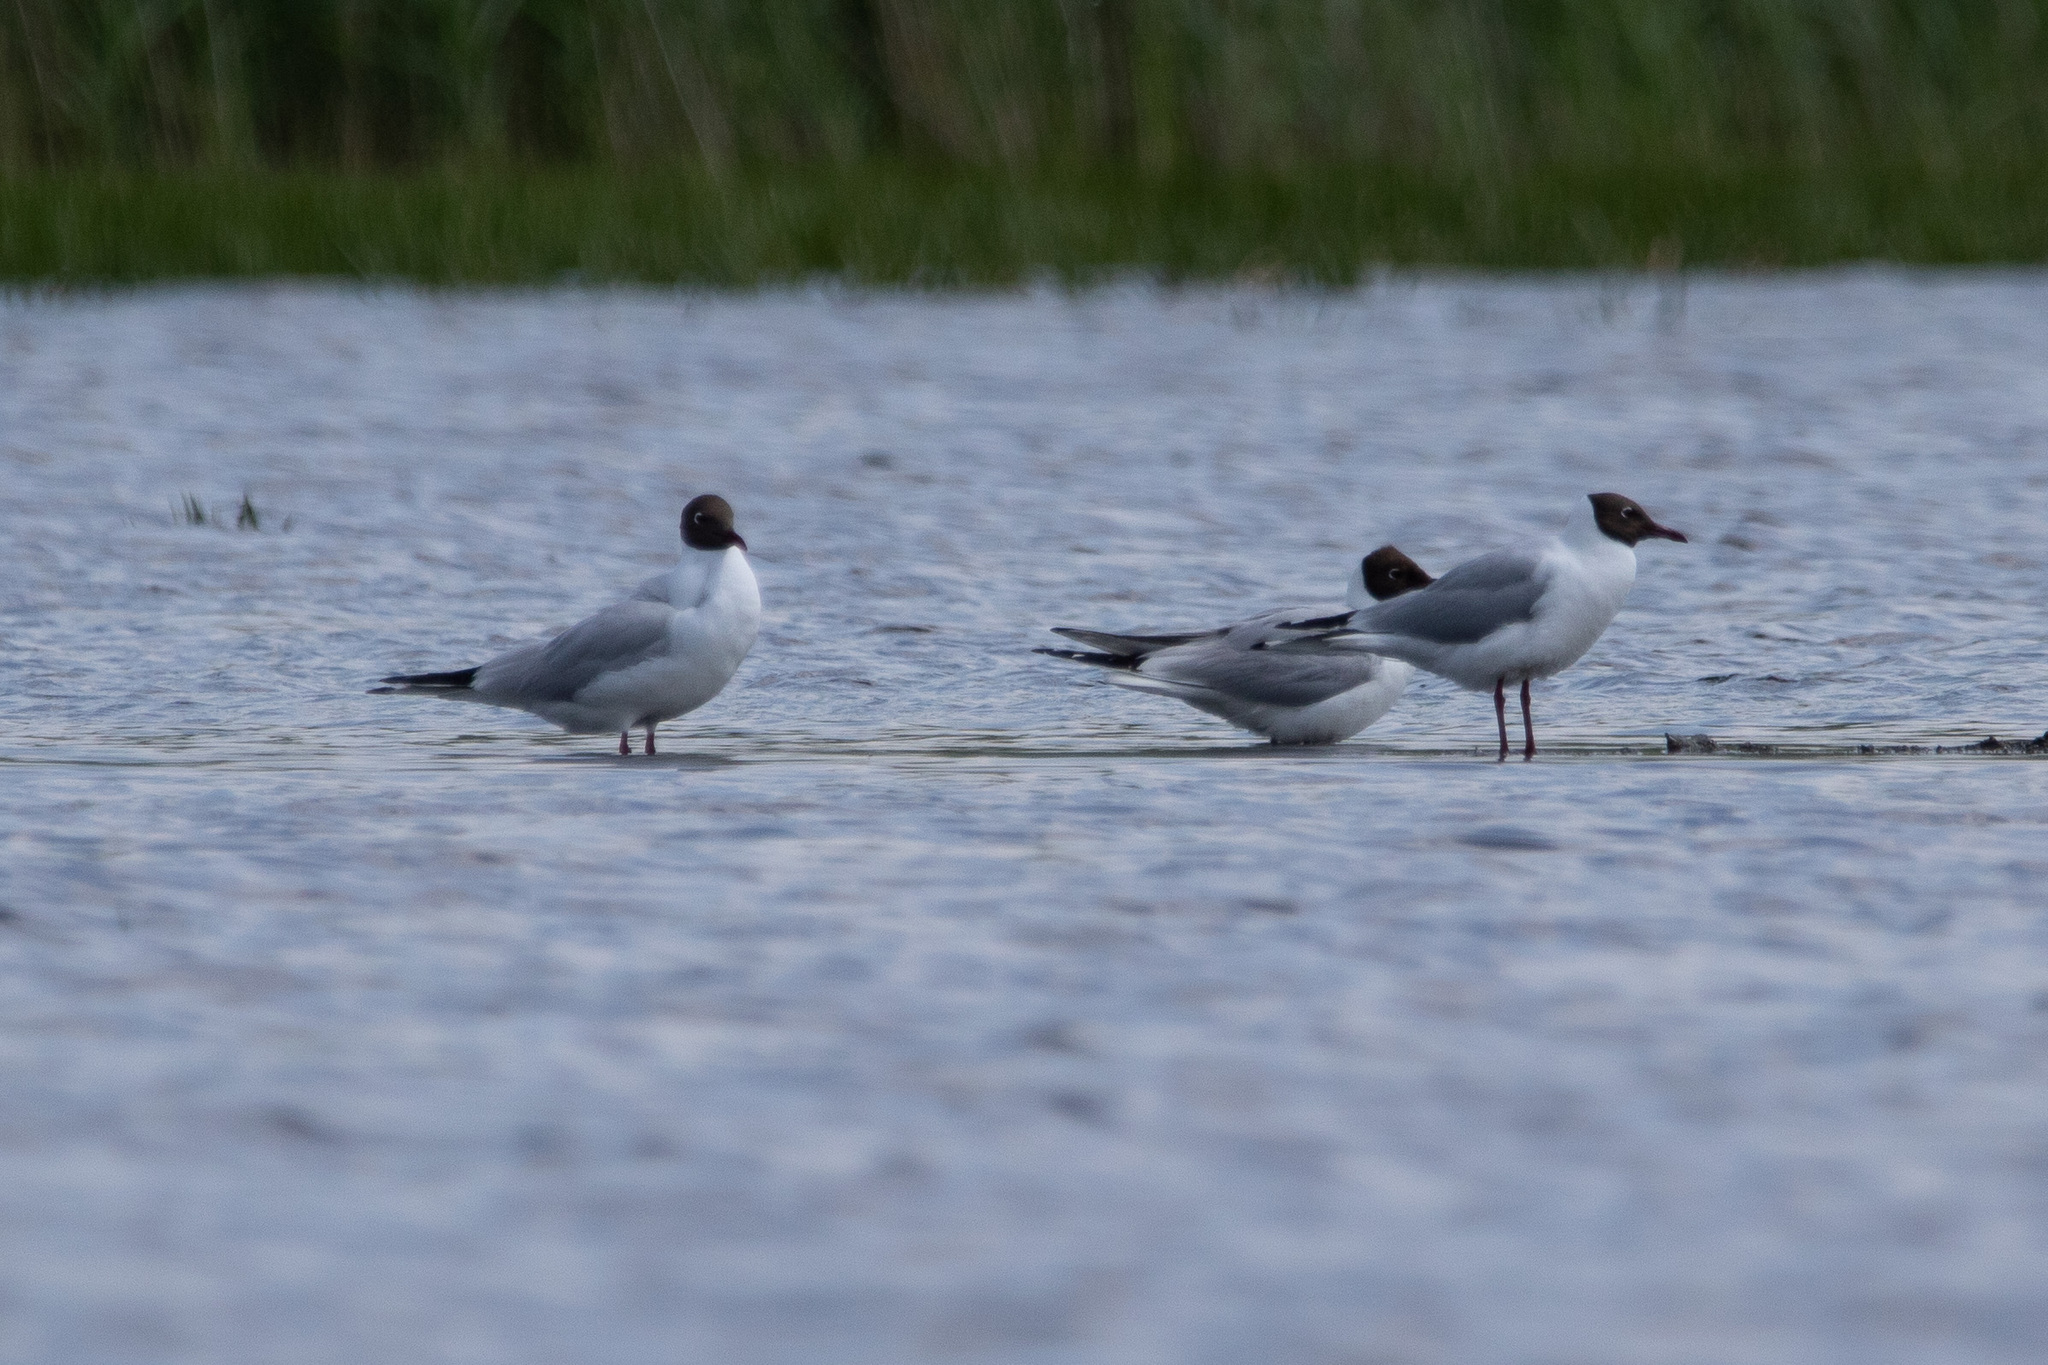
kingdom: Animalia
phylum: Chordata
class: Aves
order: Charadriiformes
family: Laridae
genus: Chroicocephalus
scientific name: Chroicocephalus ridibundus
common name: Black-headed gull
